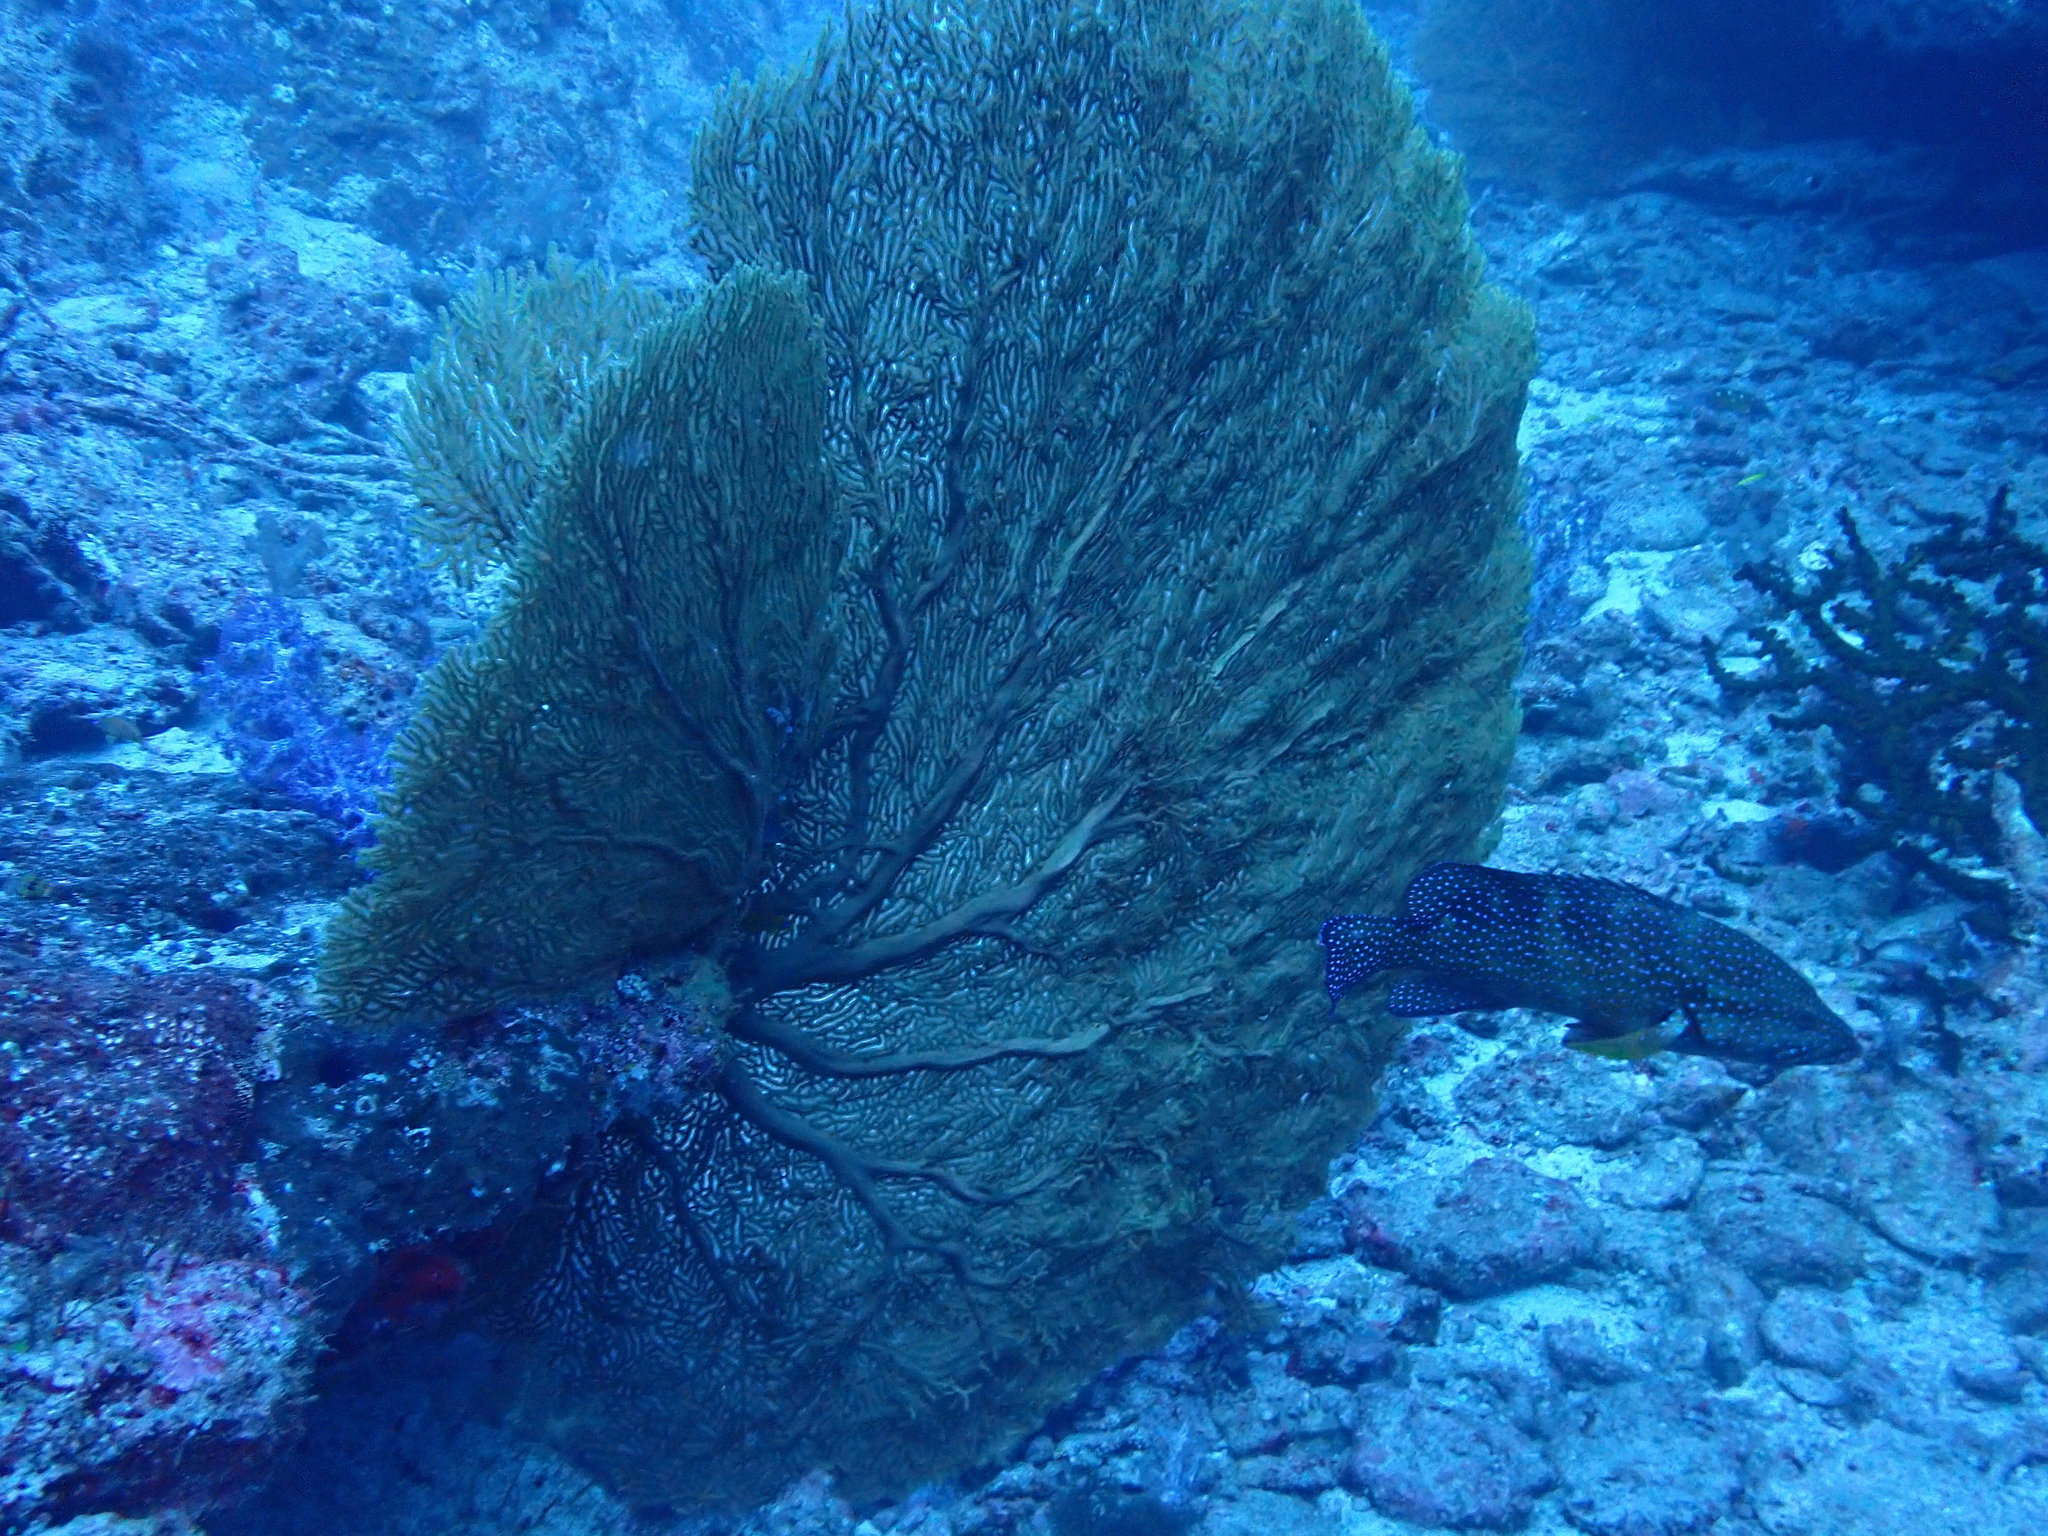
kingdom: Animalia
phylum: Cnidaria
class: Anthozoa
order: Malacalcyonacea
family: Subergorgiidae
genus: Annella
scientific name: Annella mollis
